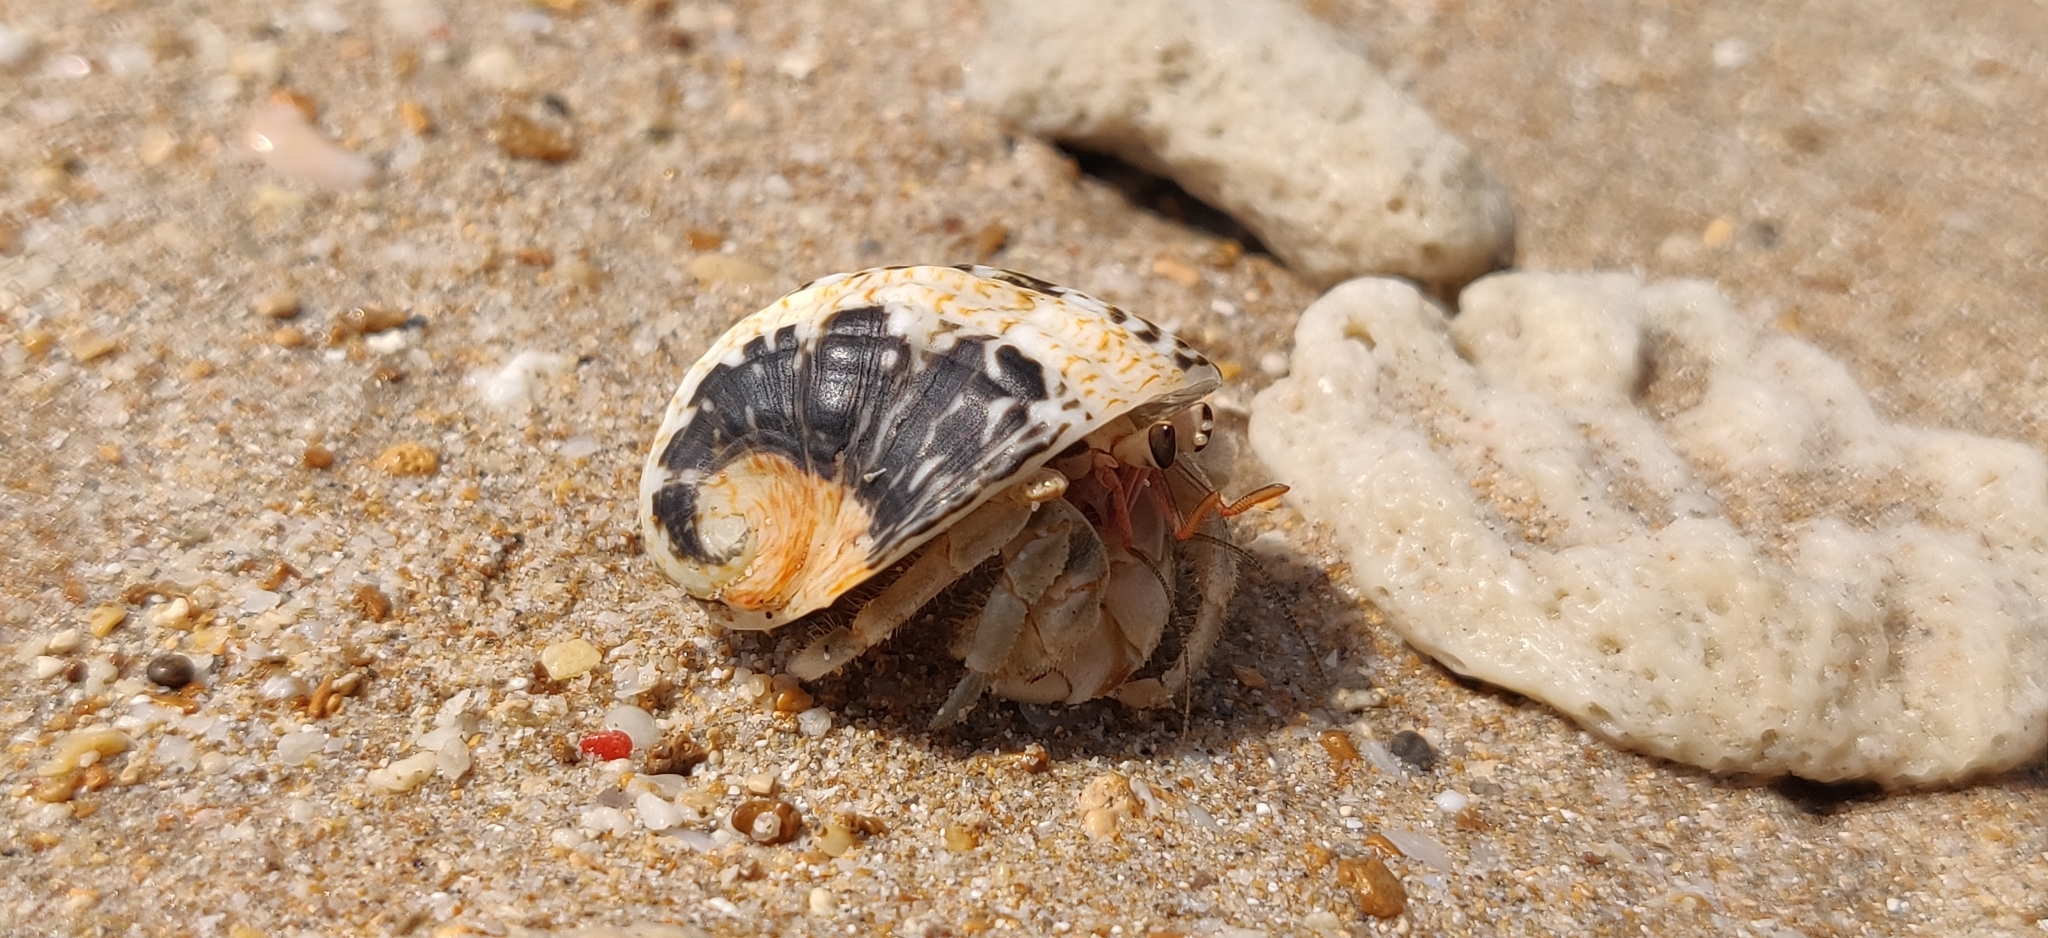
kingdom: Animalia
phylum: Arthropoda
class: Malacostraca
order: Decapoda
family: Coenobitidae
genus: Coenobita
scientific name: Coenobita rugosus
